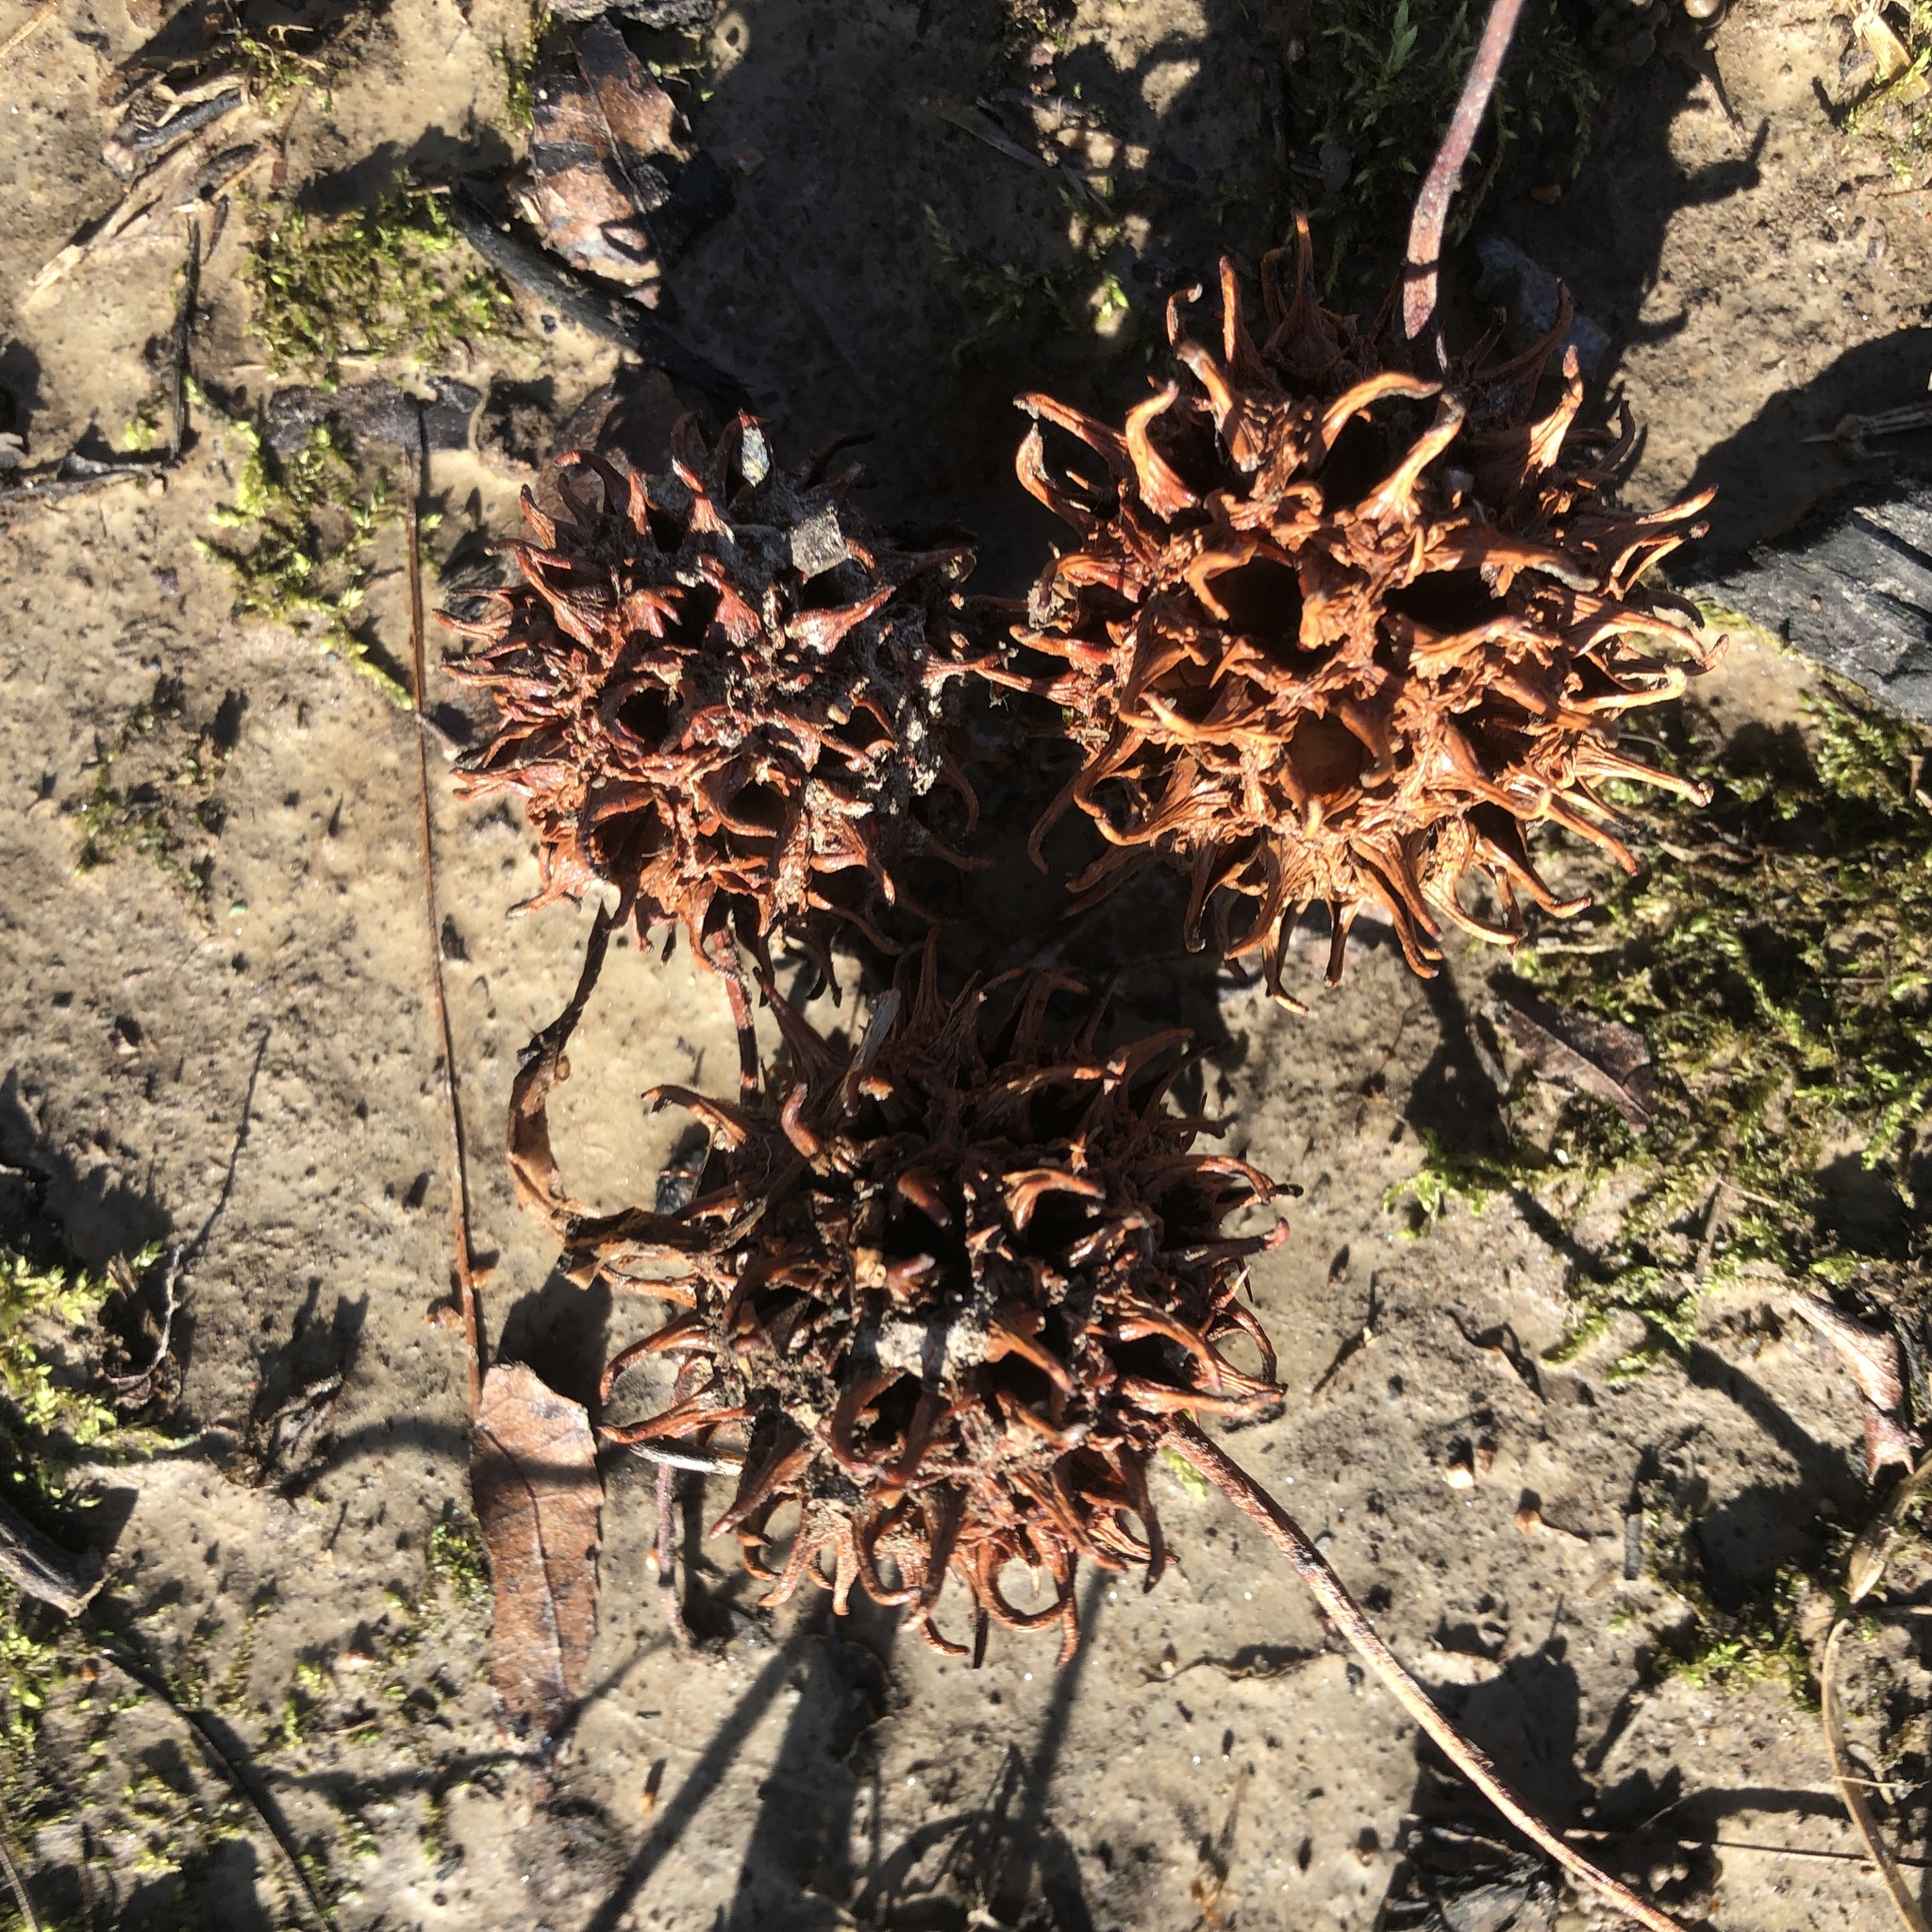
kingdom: Plantae
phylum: Tracheophyta
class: Magnoliopsida
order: Saxifragales
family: Altingiaceae
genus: Liquidambar
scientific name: Liquidambar styraciflua
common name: Sweet gum
